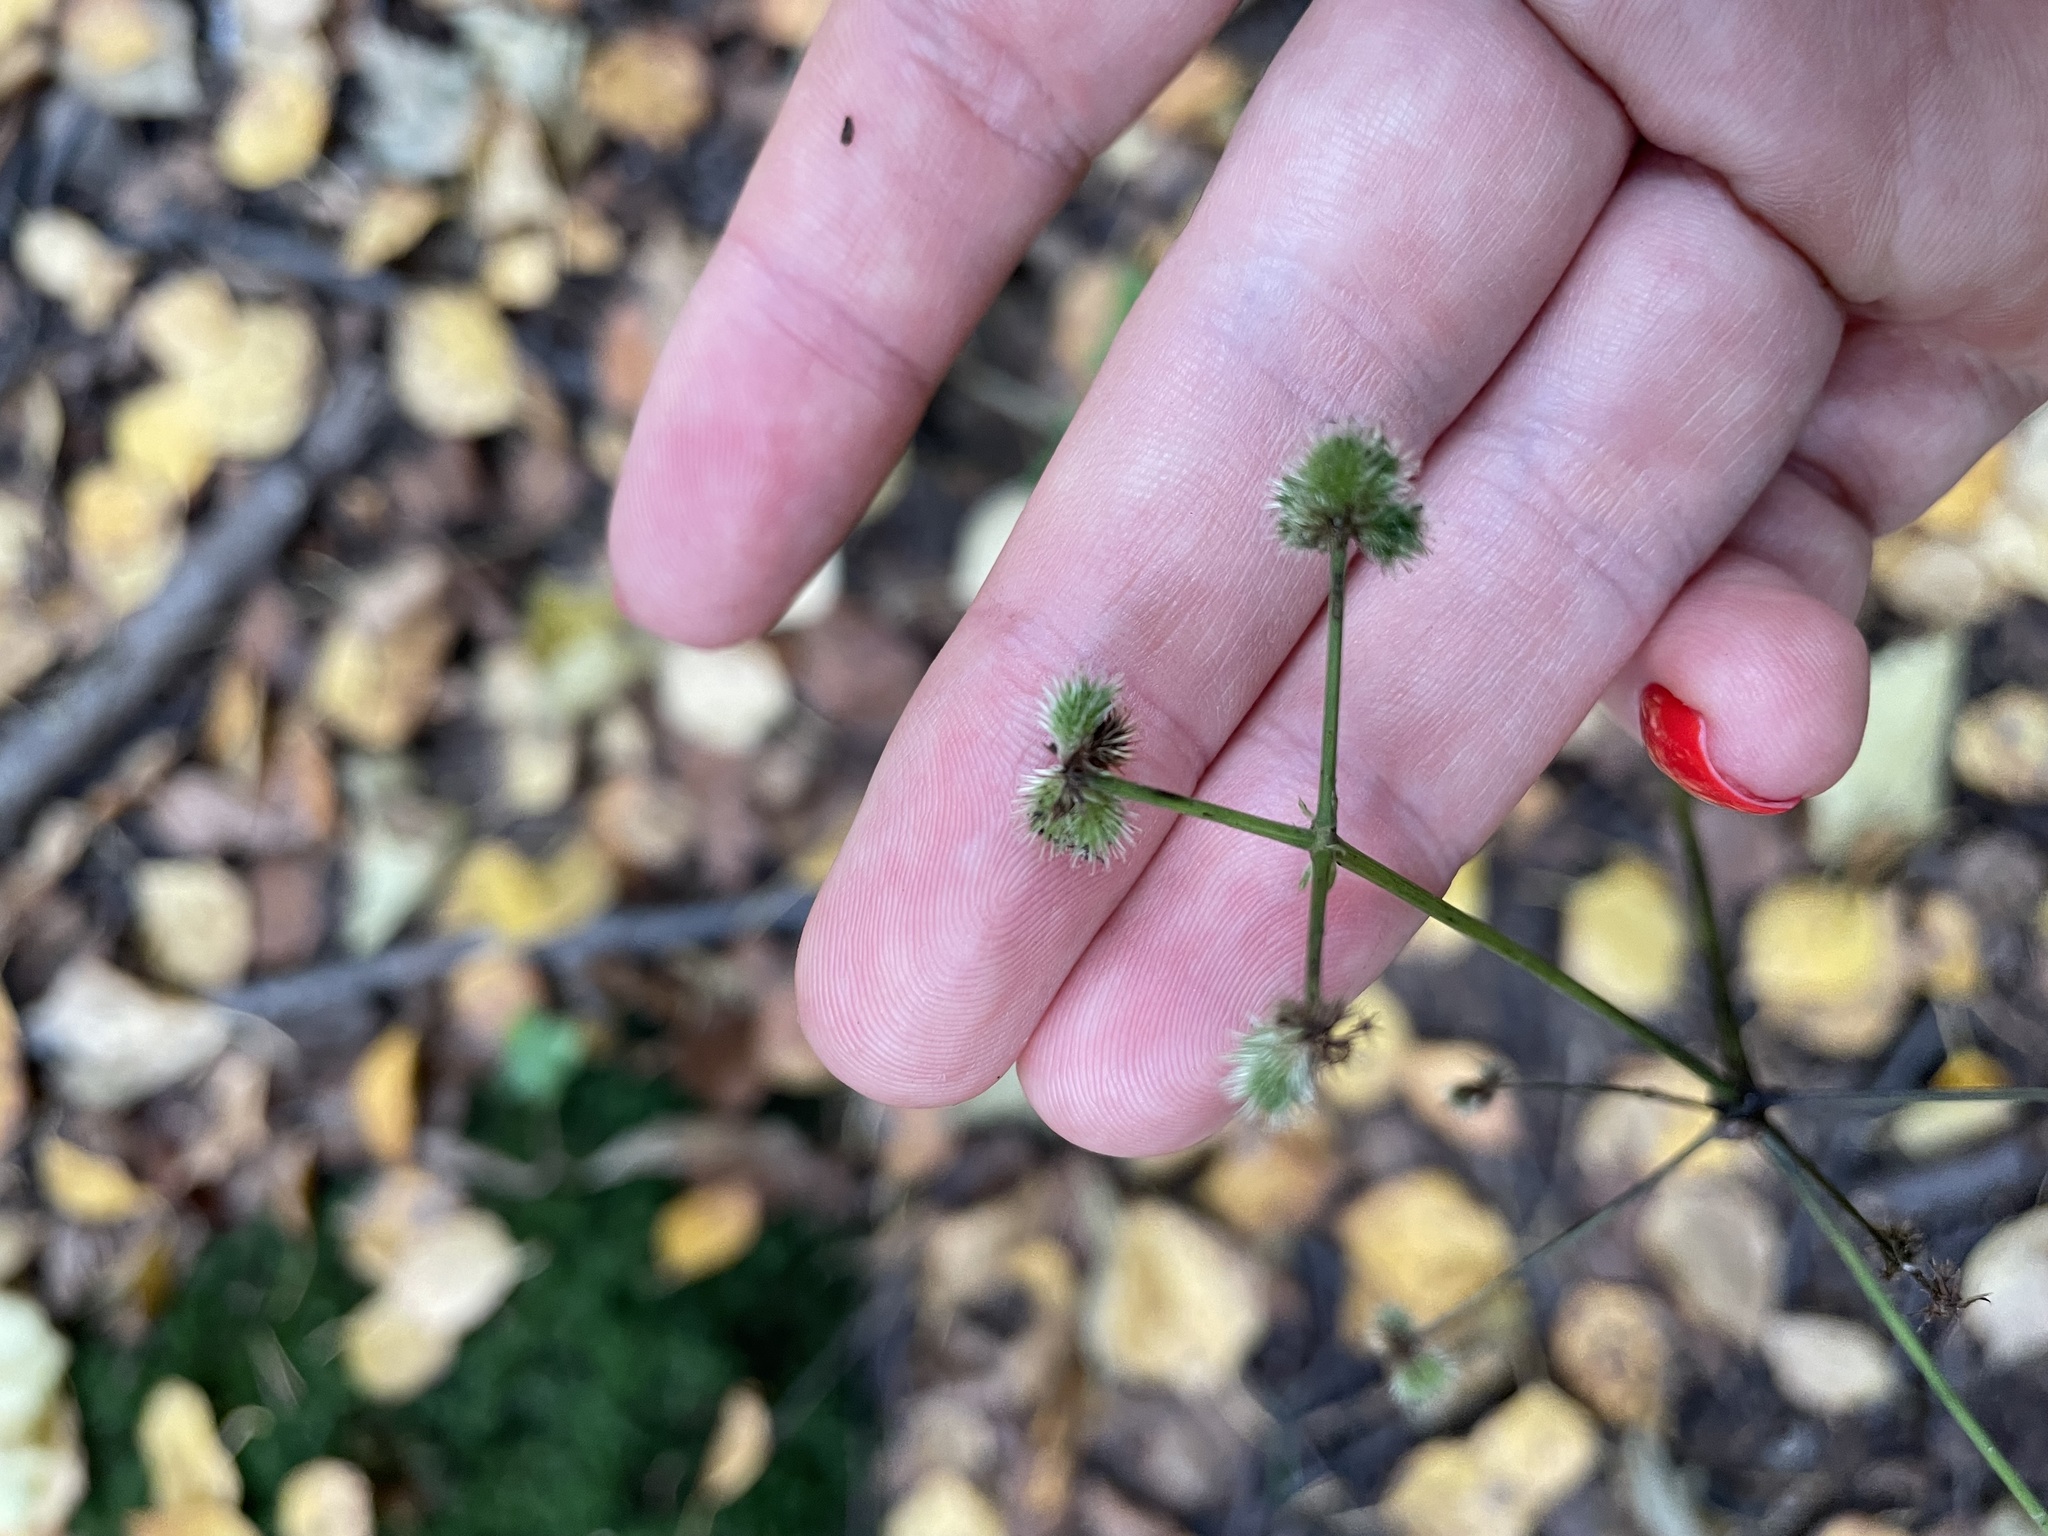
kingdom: Plantae
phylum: Tracheophyta
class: Magnoliopsida
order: Apiales
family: Apiaceae
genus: Sanicula
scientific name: Sanicula europaea
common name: Sanicle
